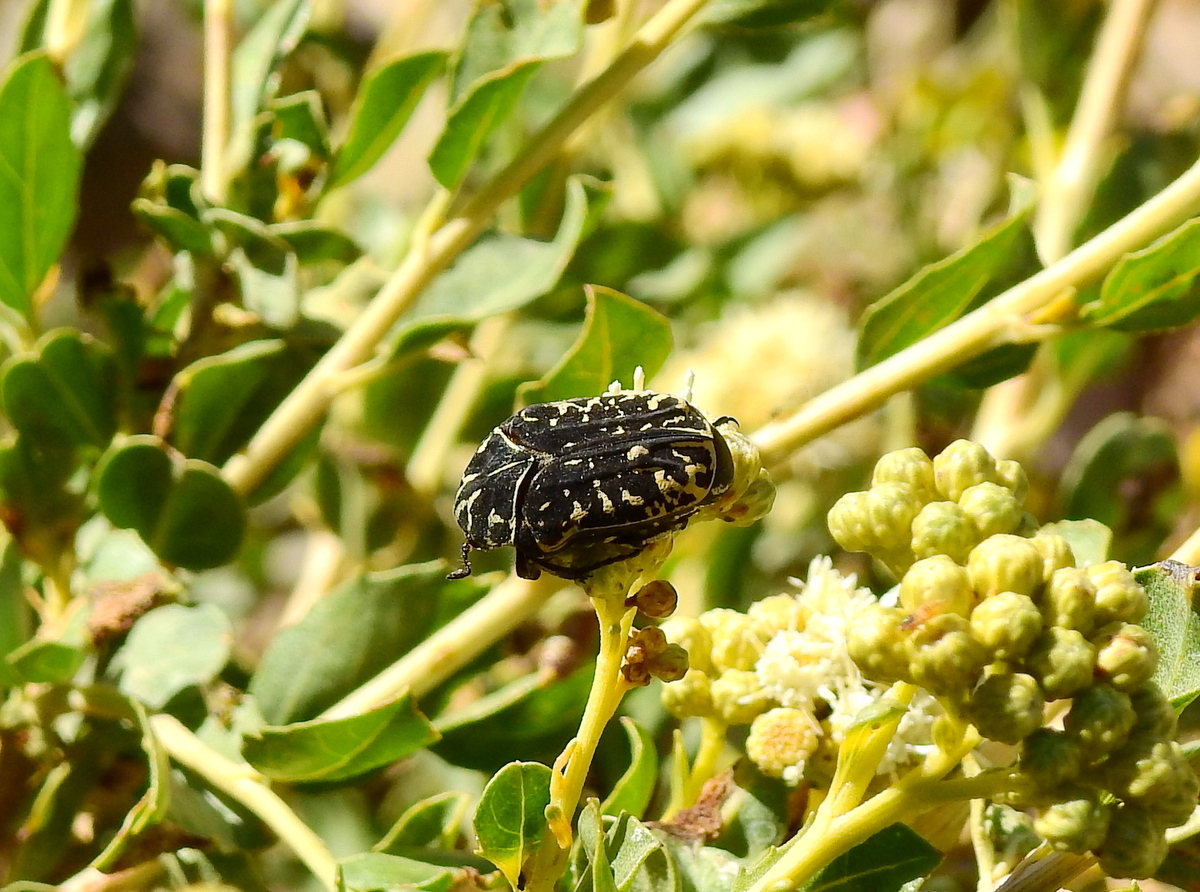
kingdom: Animalia
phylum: Arthropoda
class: Insecta
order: Coleoptera
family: Scarabaeidae
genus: Marmarina
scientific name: Marmarina tigrina
